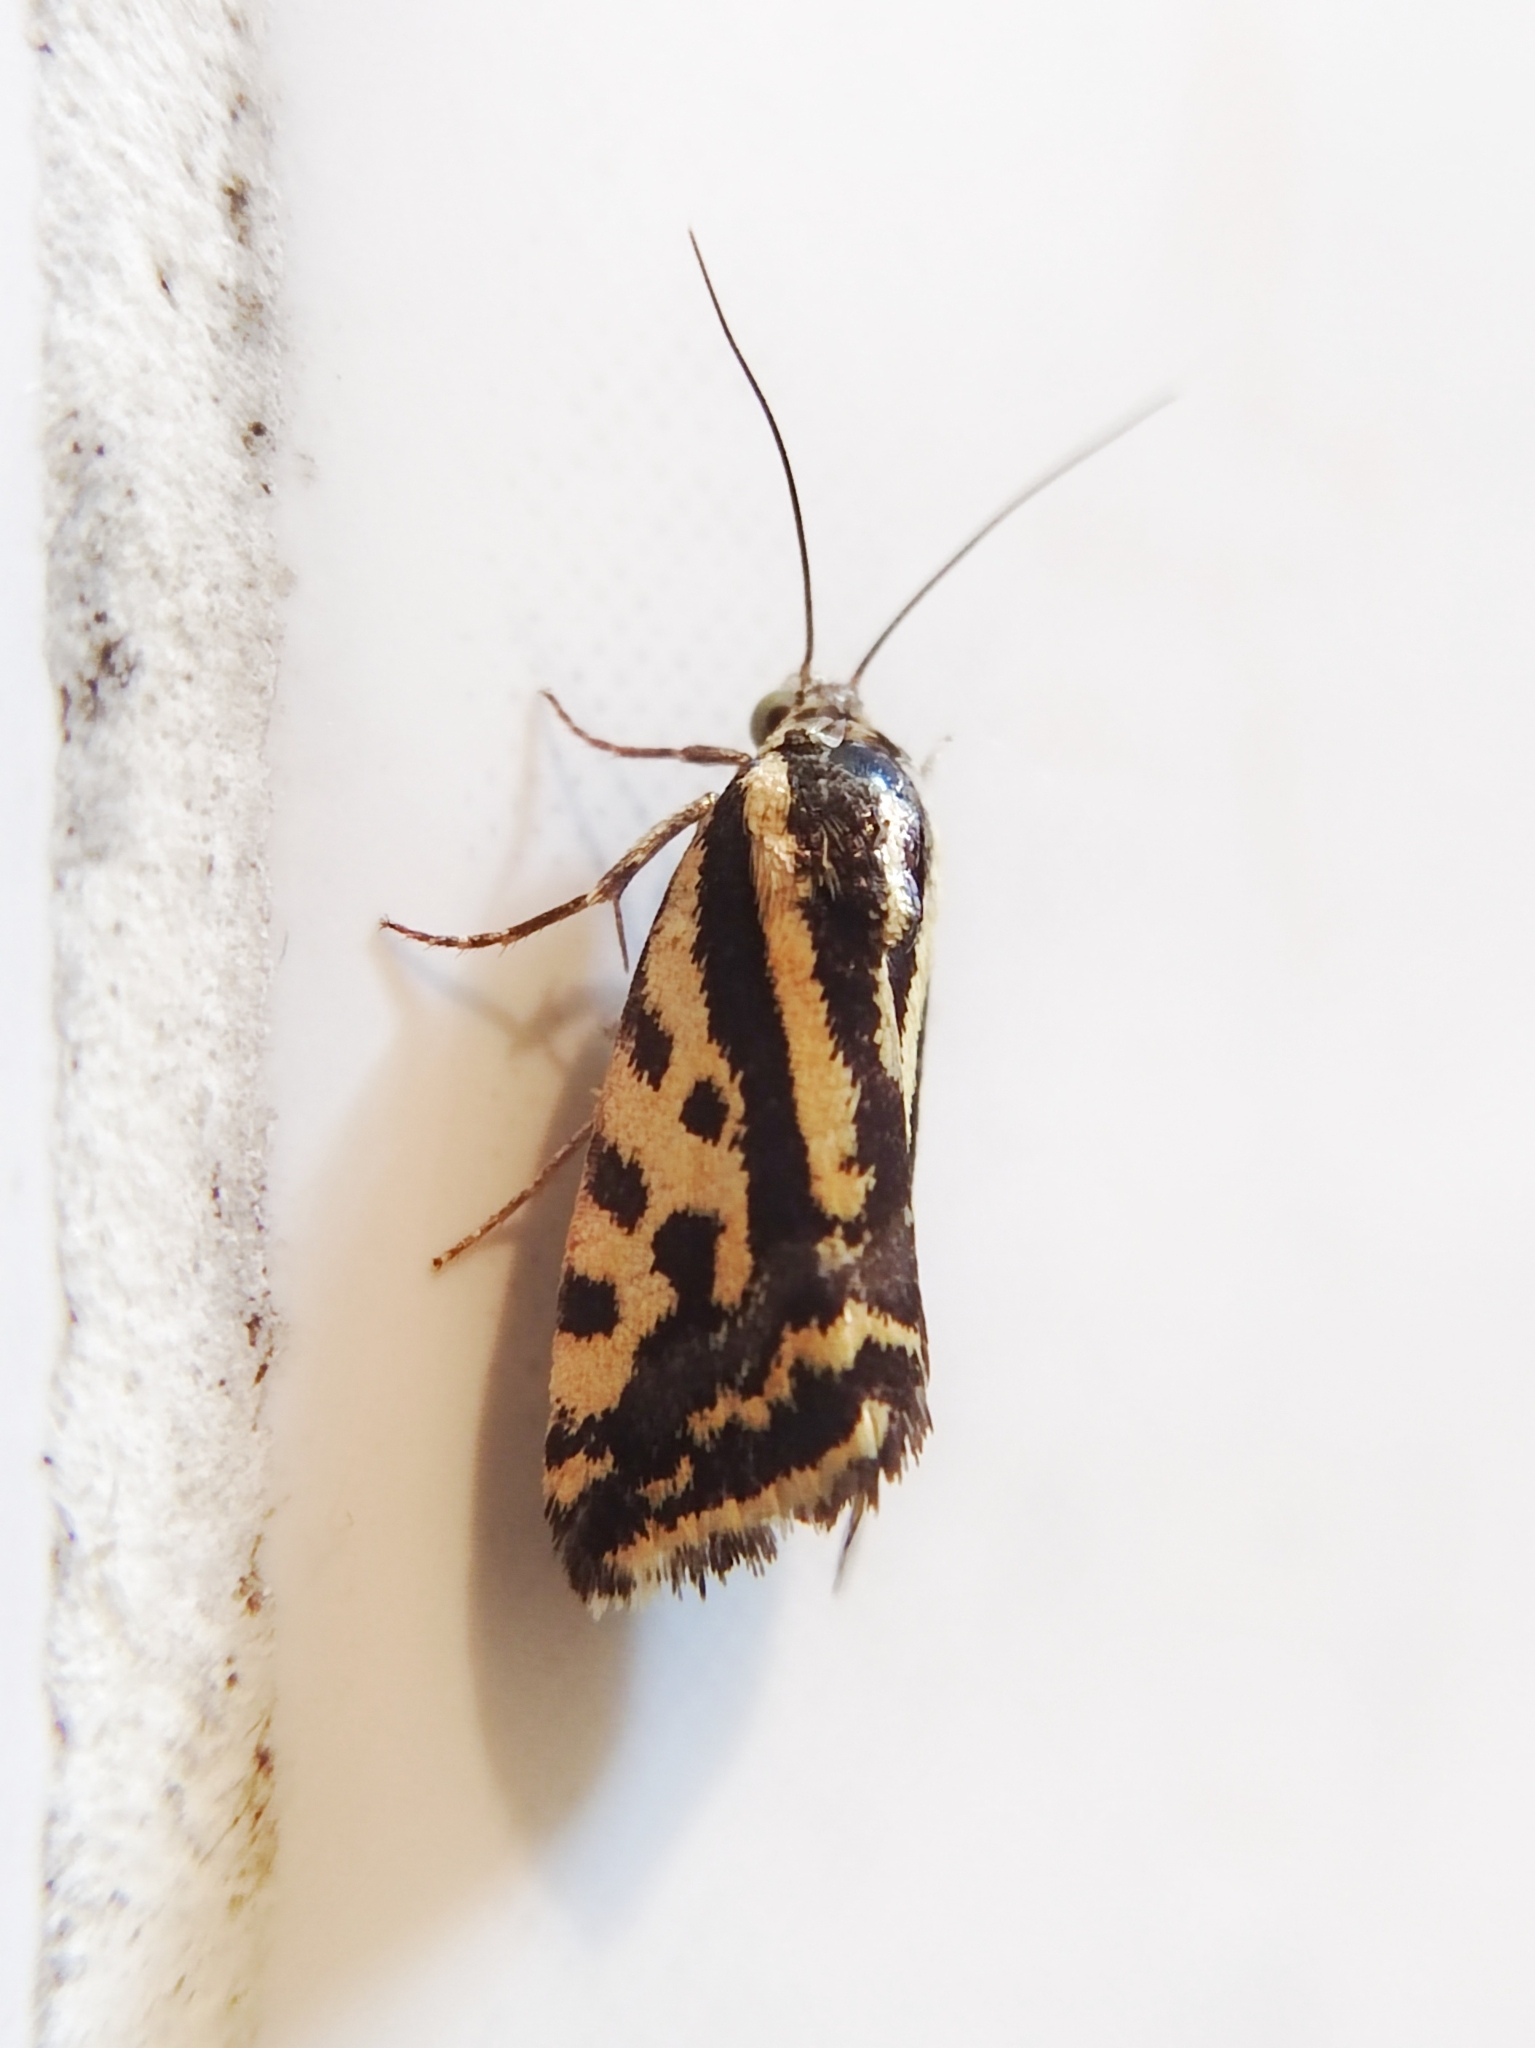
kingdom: Animalia
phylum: Arthropoda
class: Insecta
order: Lepidoptera
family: Noctuidae
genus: Acontia
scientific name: Acontia trabealis
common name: Spotted sulphur
